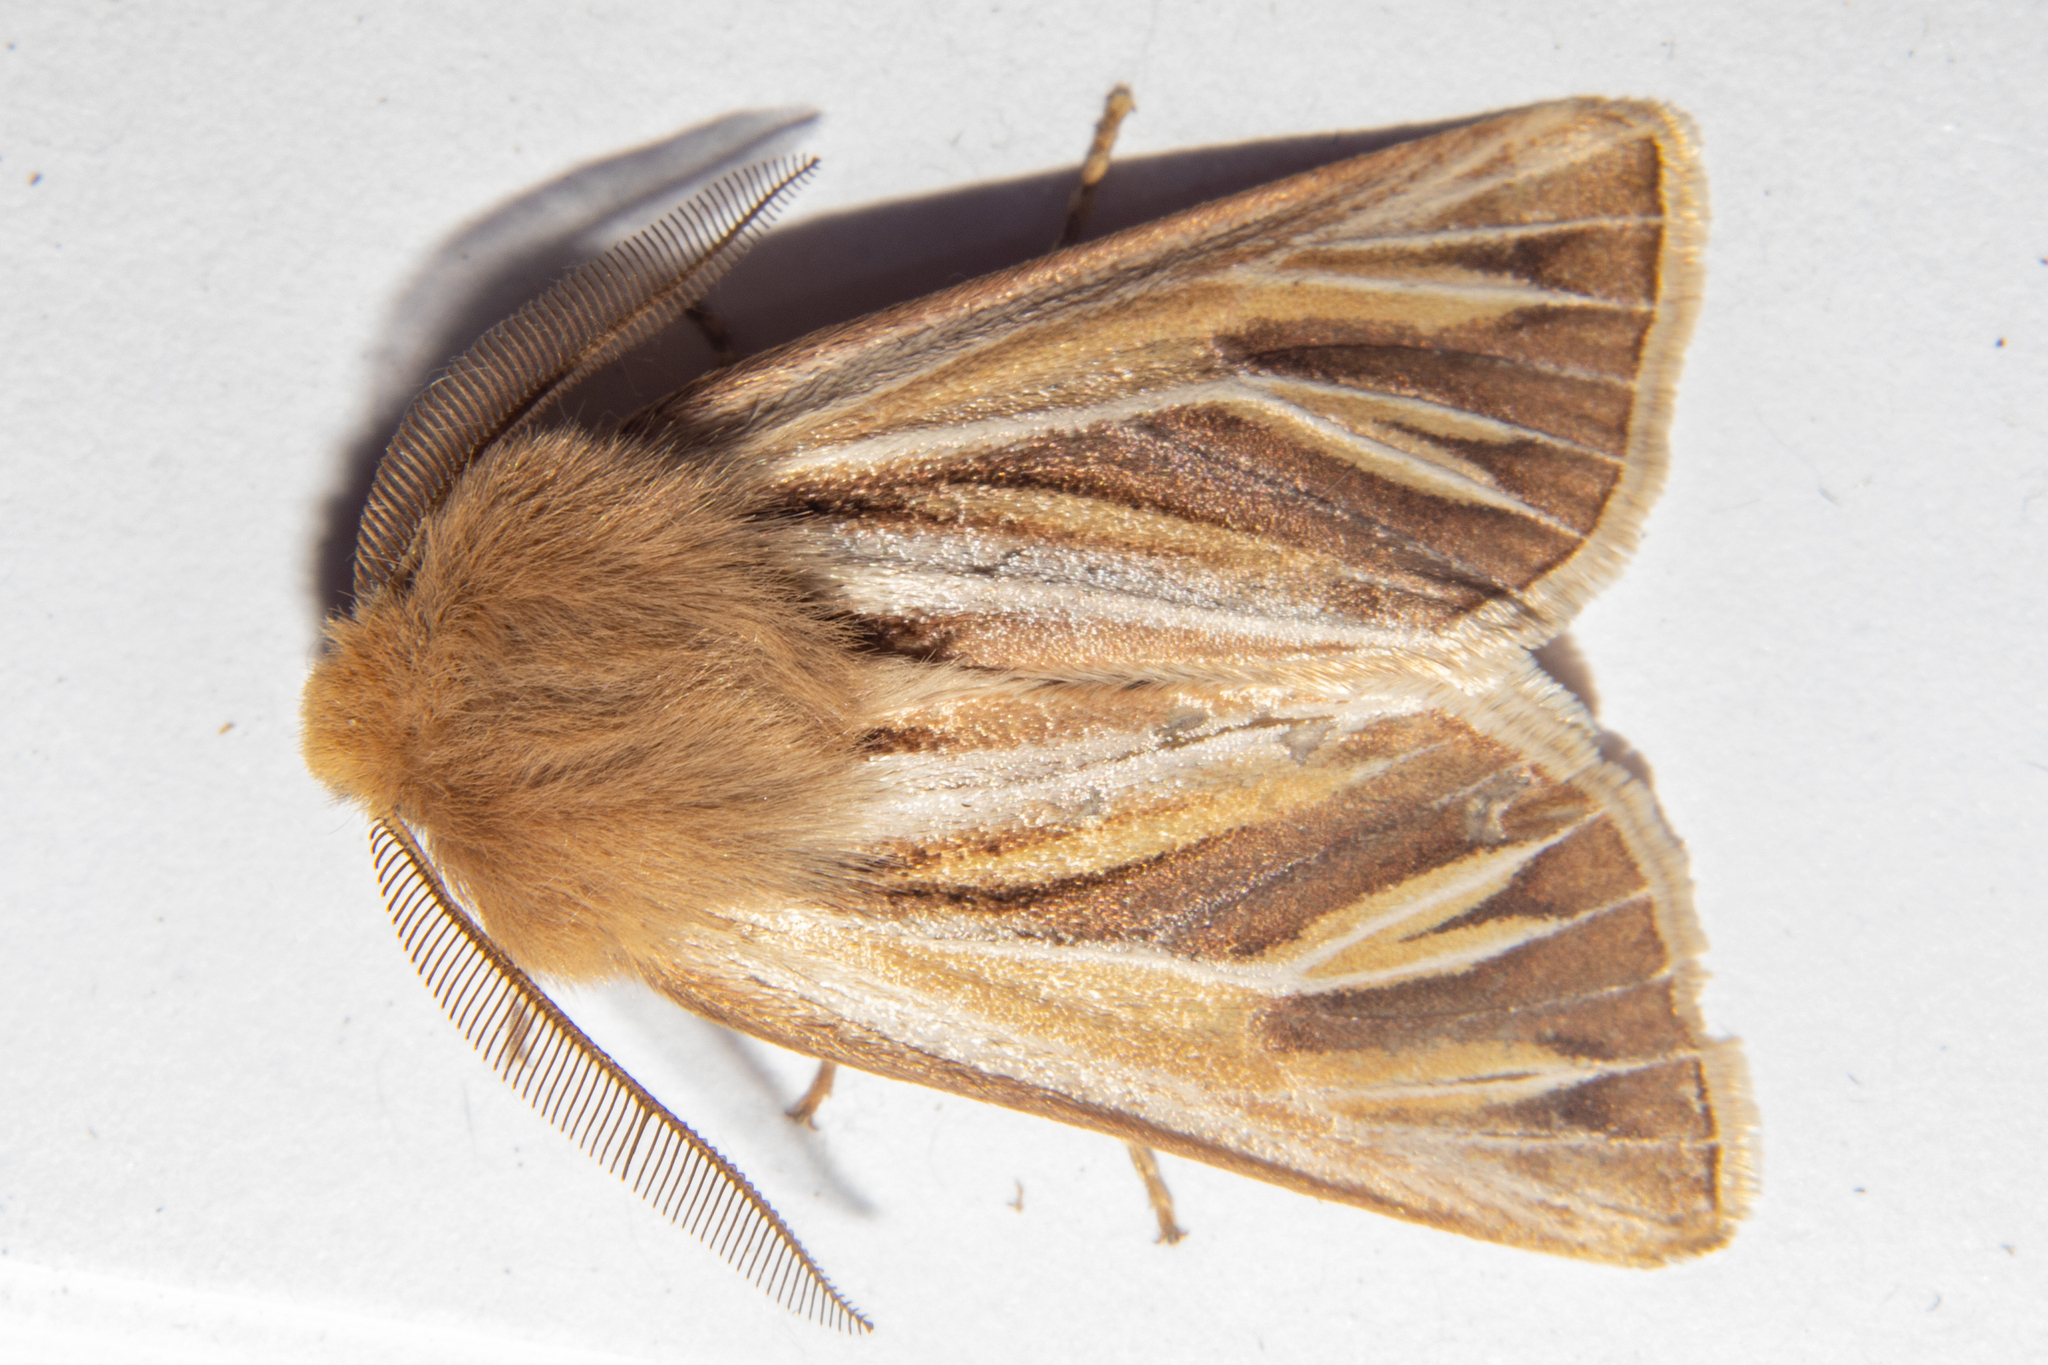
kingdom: Animalia
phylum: Arthropoda
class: Insecta
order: Lepidoptera
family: Noctuidae
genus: Ichneutica
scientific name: Ichneutica caraunias
